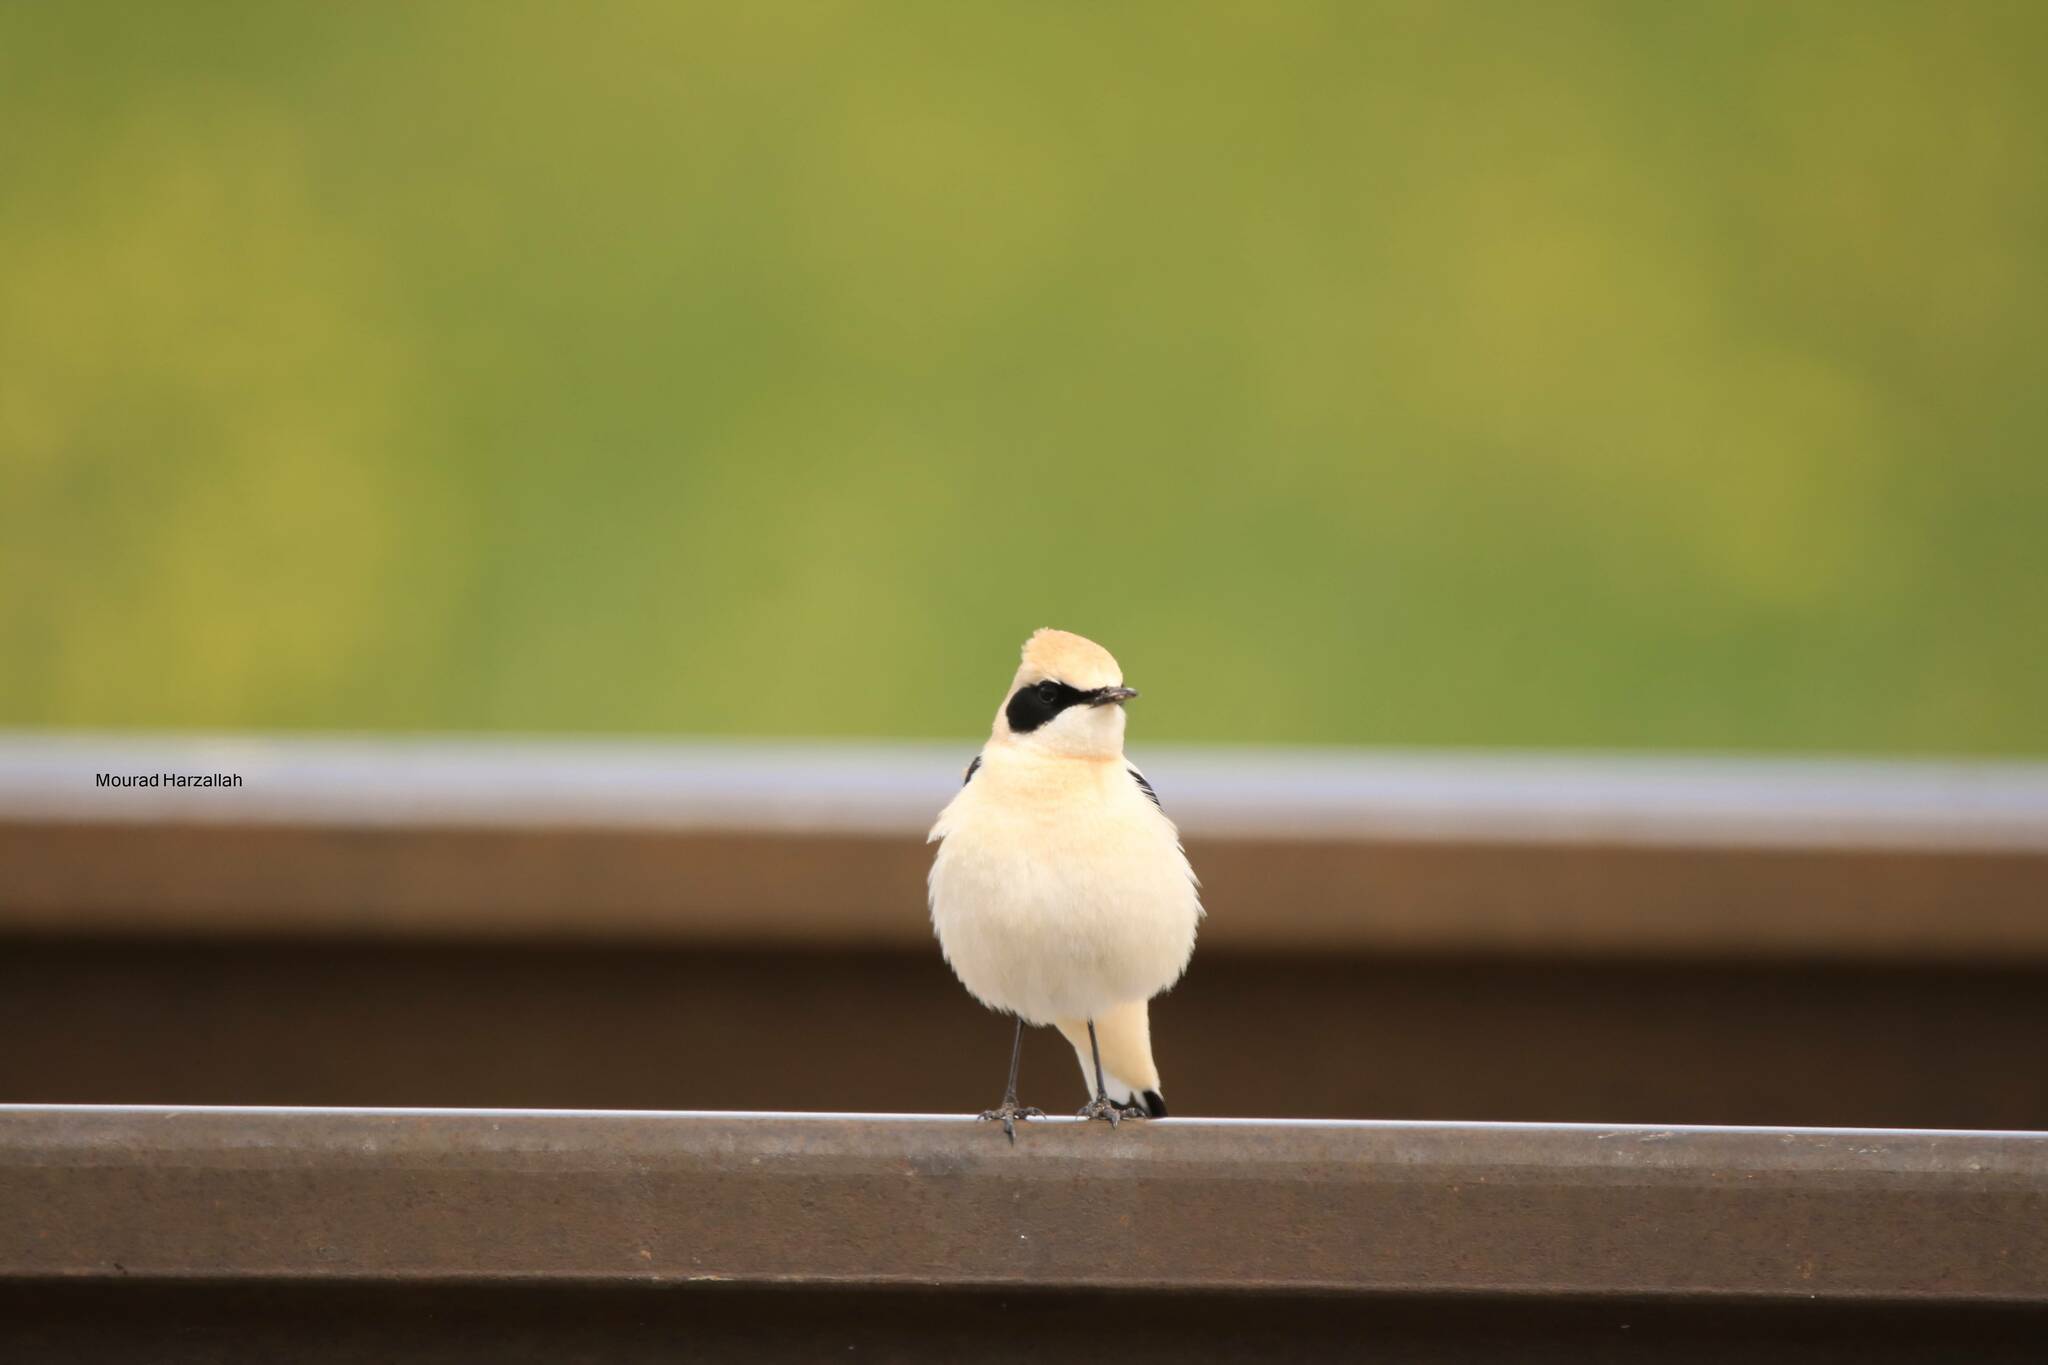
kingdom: Animalia
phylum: Chordata
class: Aves
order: Passeriformes
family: Muscicapidae
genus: Oenanthe
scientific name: Oenanthe hispanica
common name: Black-eared wheatear
